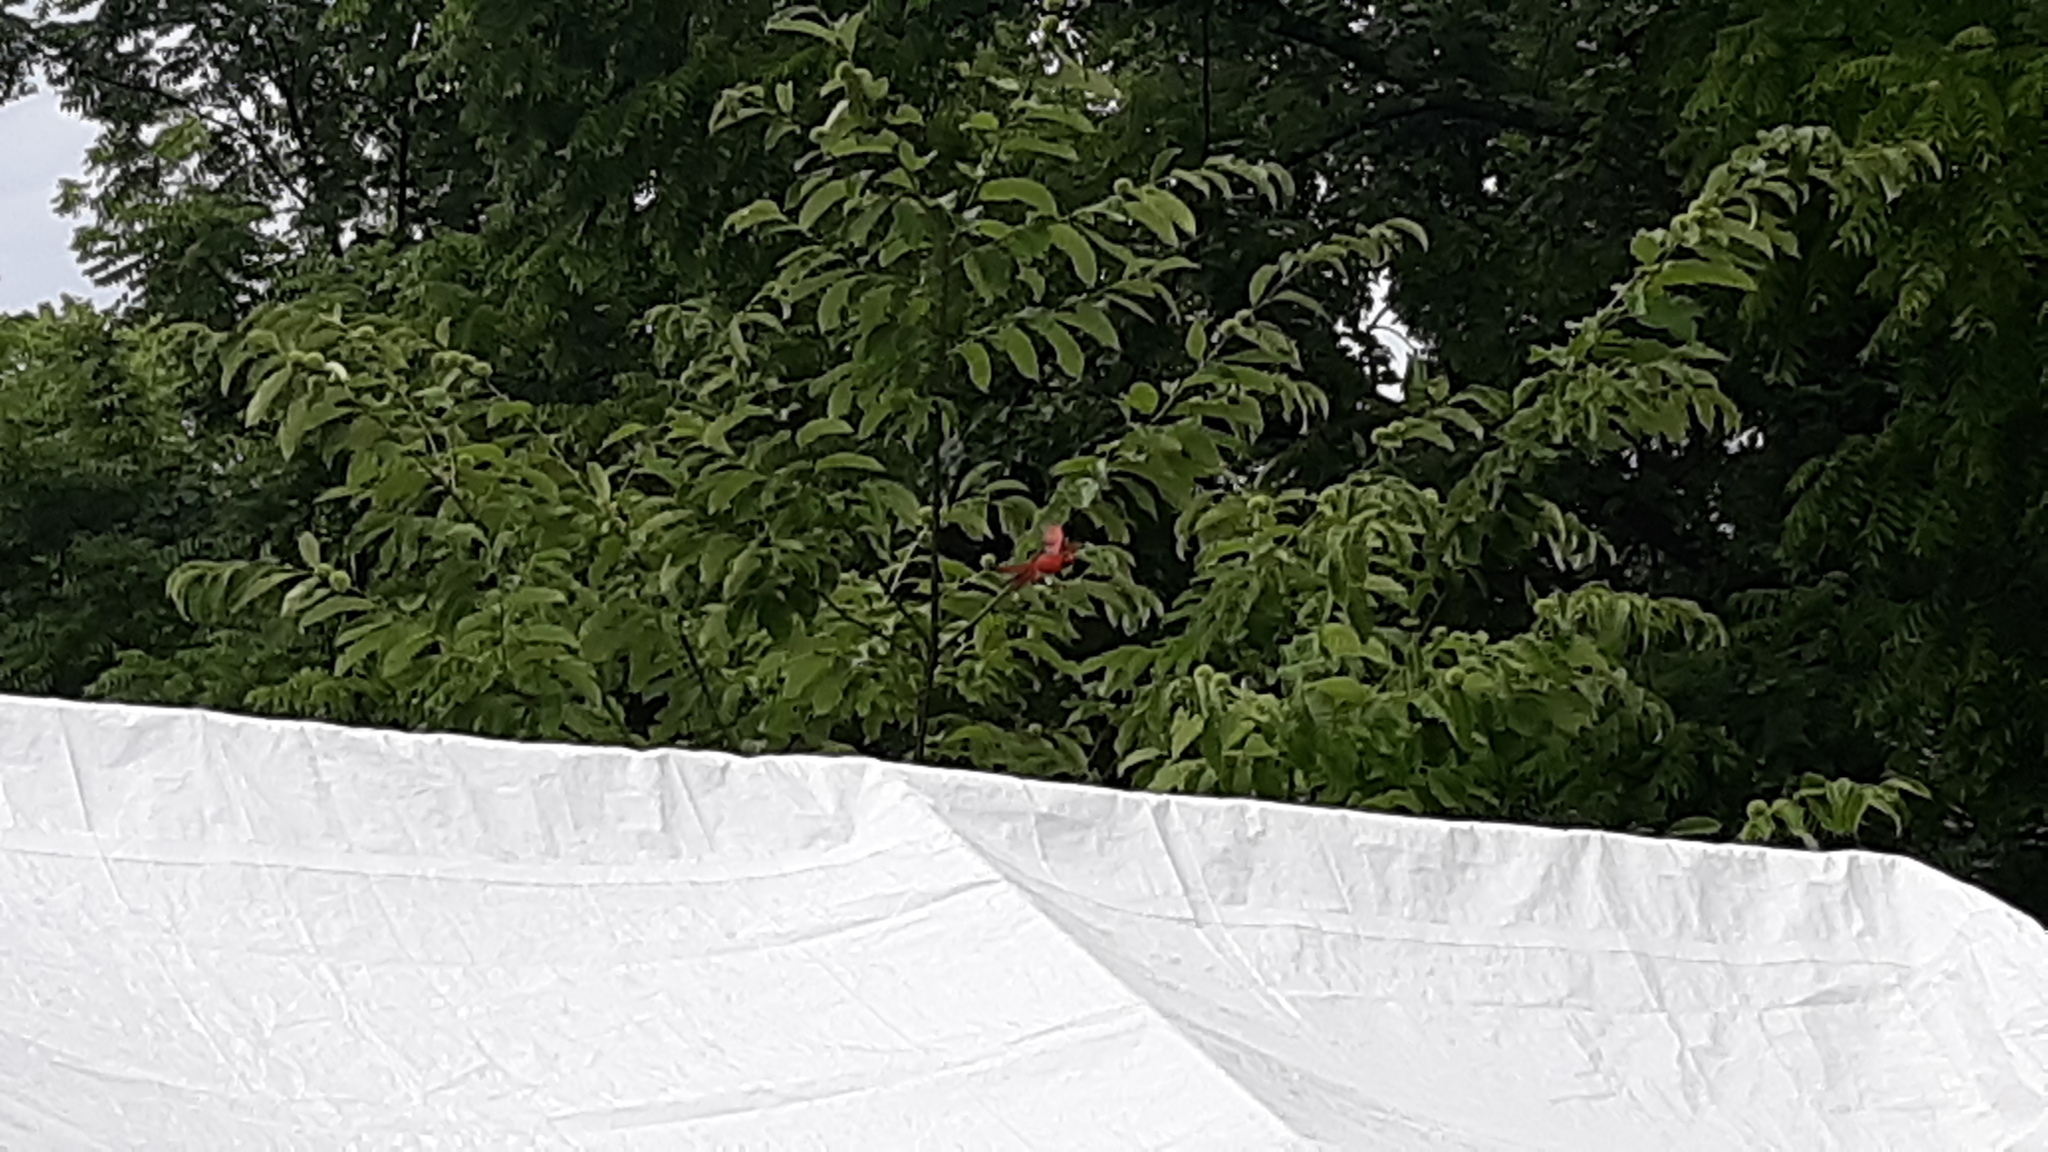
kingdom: Animalia
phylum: Chordata
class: Aves
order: Passeriformes
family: Cardinalidae
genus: Cardinalis
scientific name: Cardinalis cardinalis
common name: Northern cardinal
